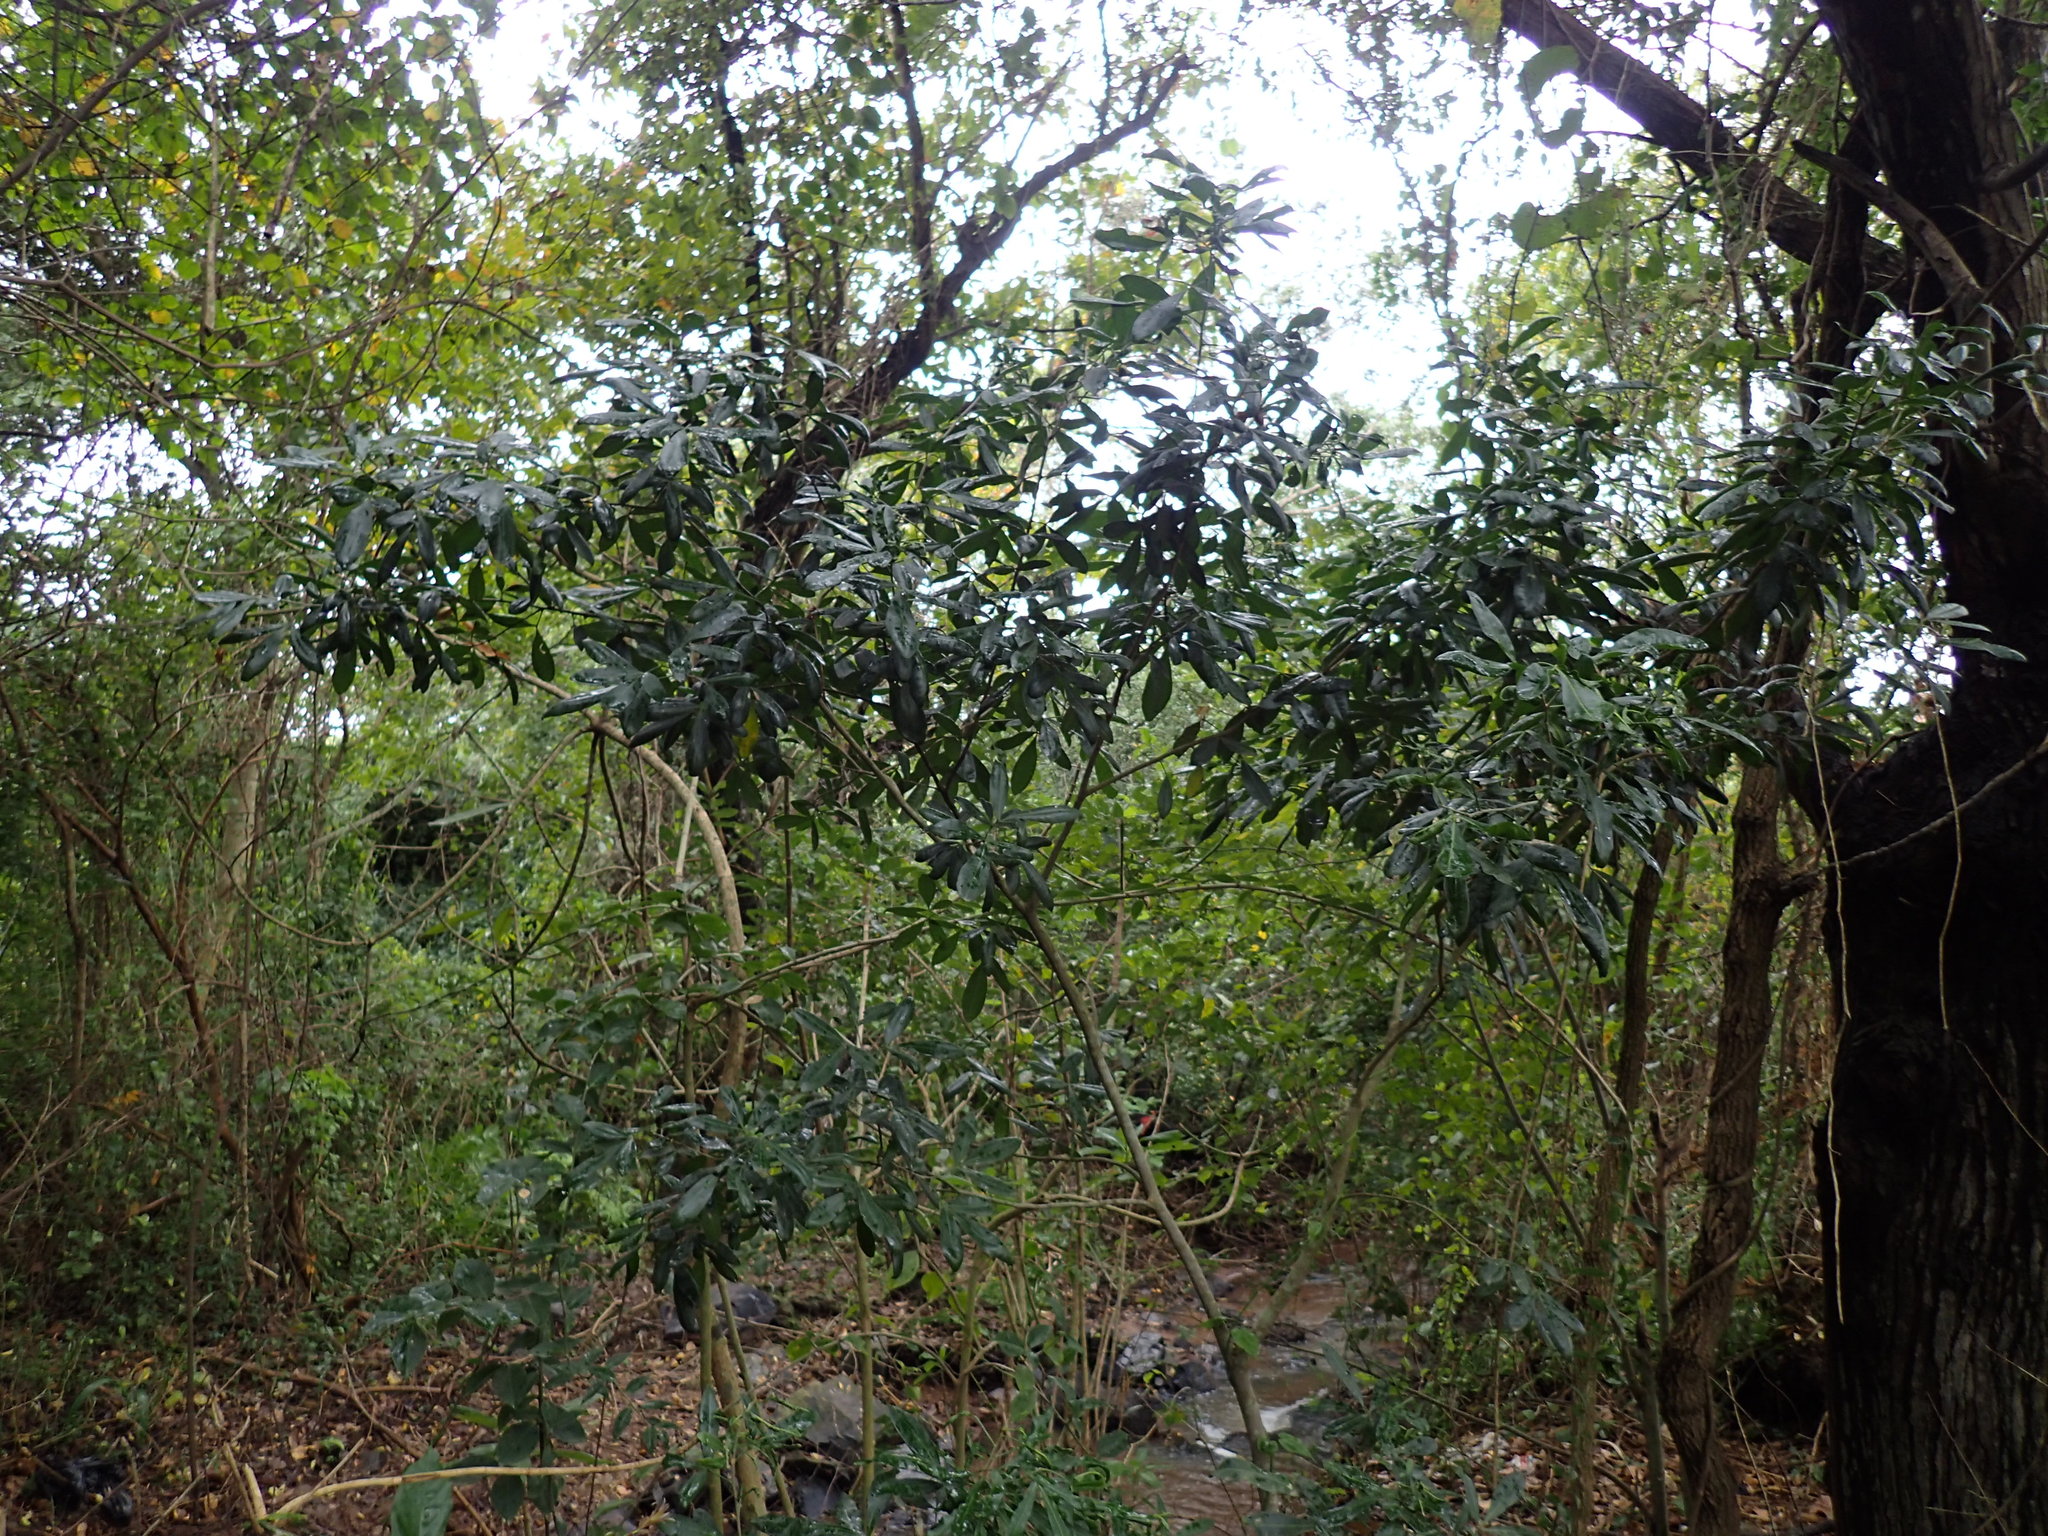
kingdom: Plantae
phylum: Tracheophyta
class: Magnoliopsida
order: Sapindales
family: Rutaceae
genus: Vepris
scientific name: Vepris trichocarpa
